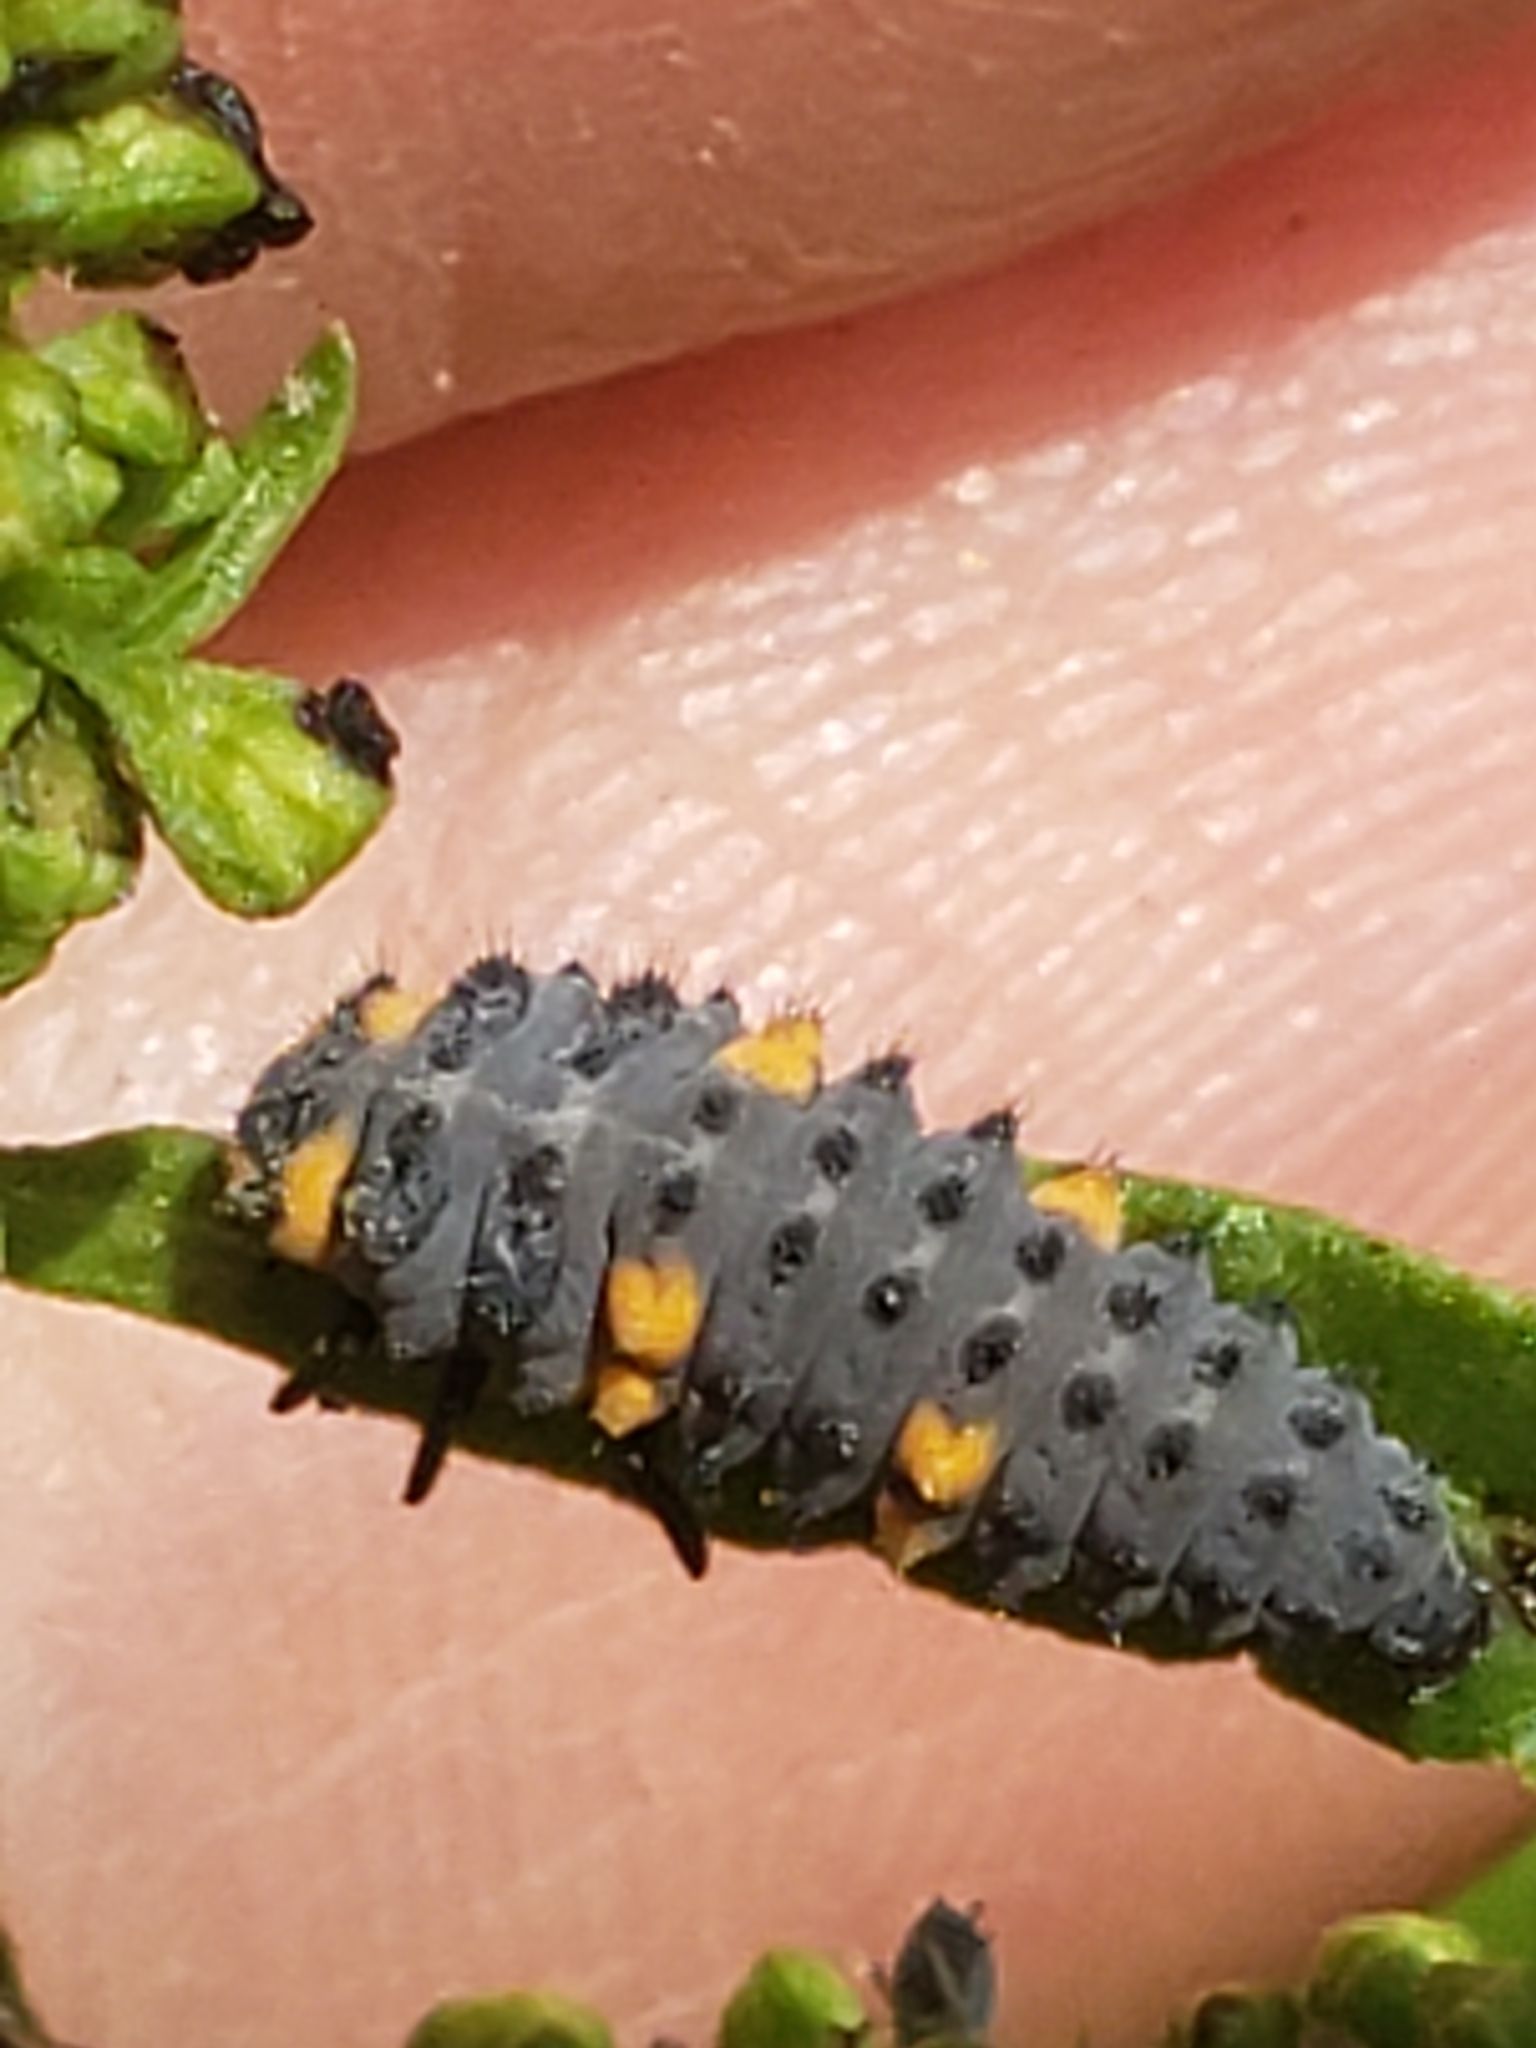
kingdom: Animalia
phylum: Arthropoda
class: Insecta
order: Coleoptera
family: Coccinellidae
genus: Coccinella
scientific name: Coccinella septempunctata
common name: Sevenspotted lady beetle
